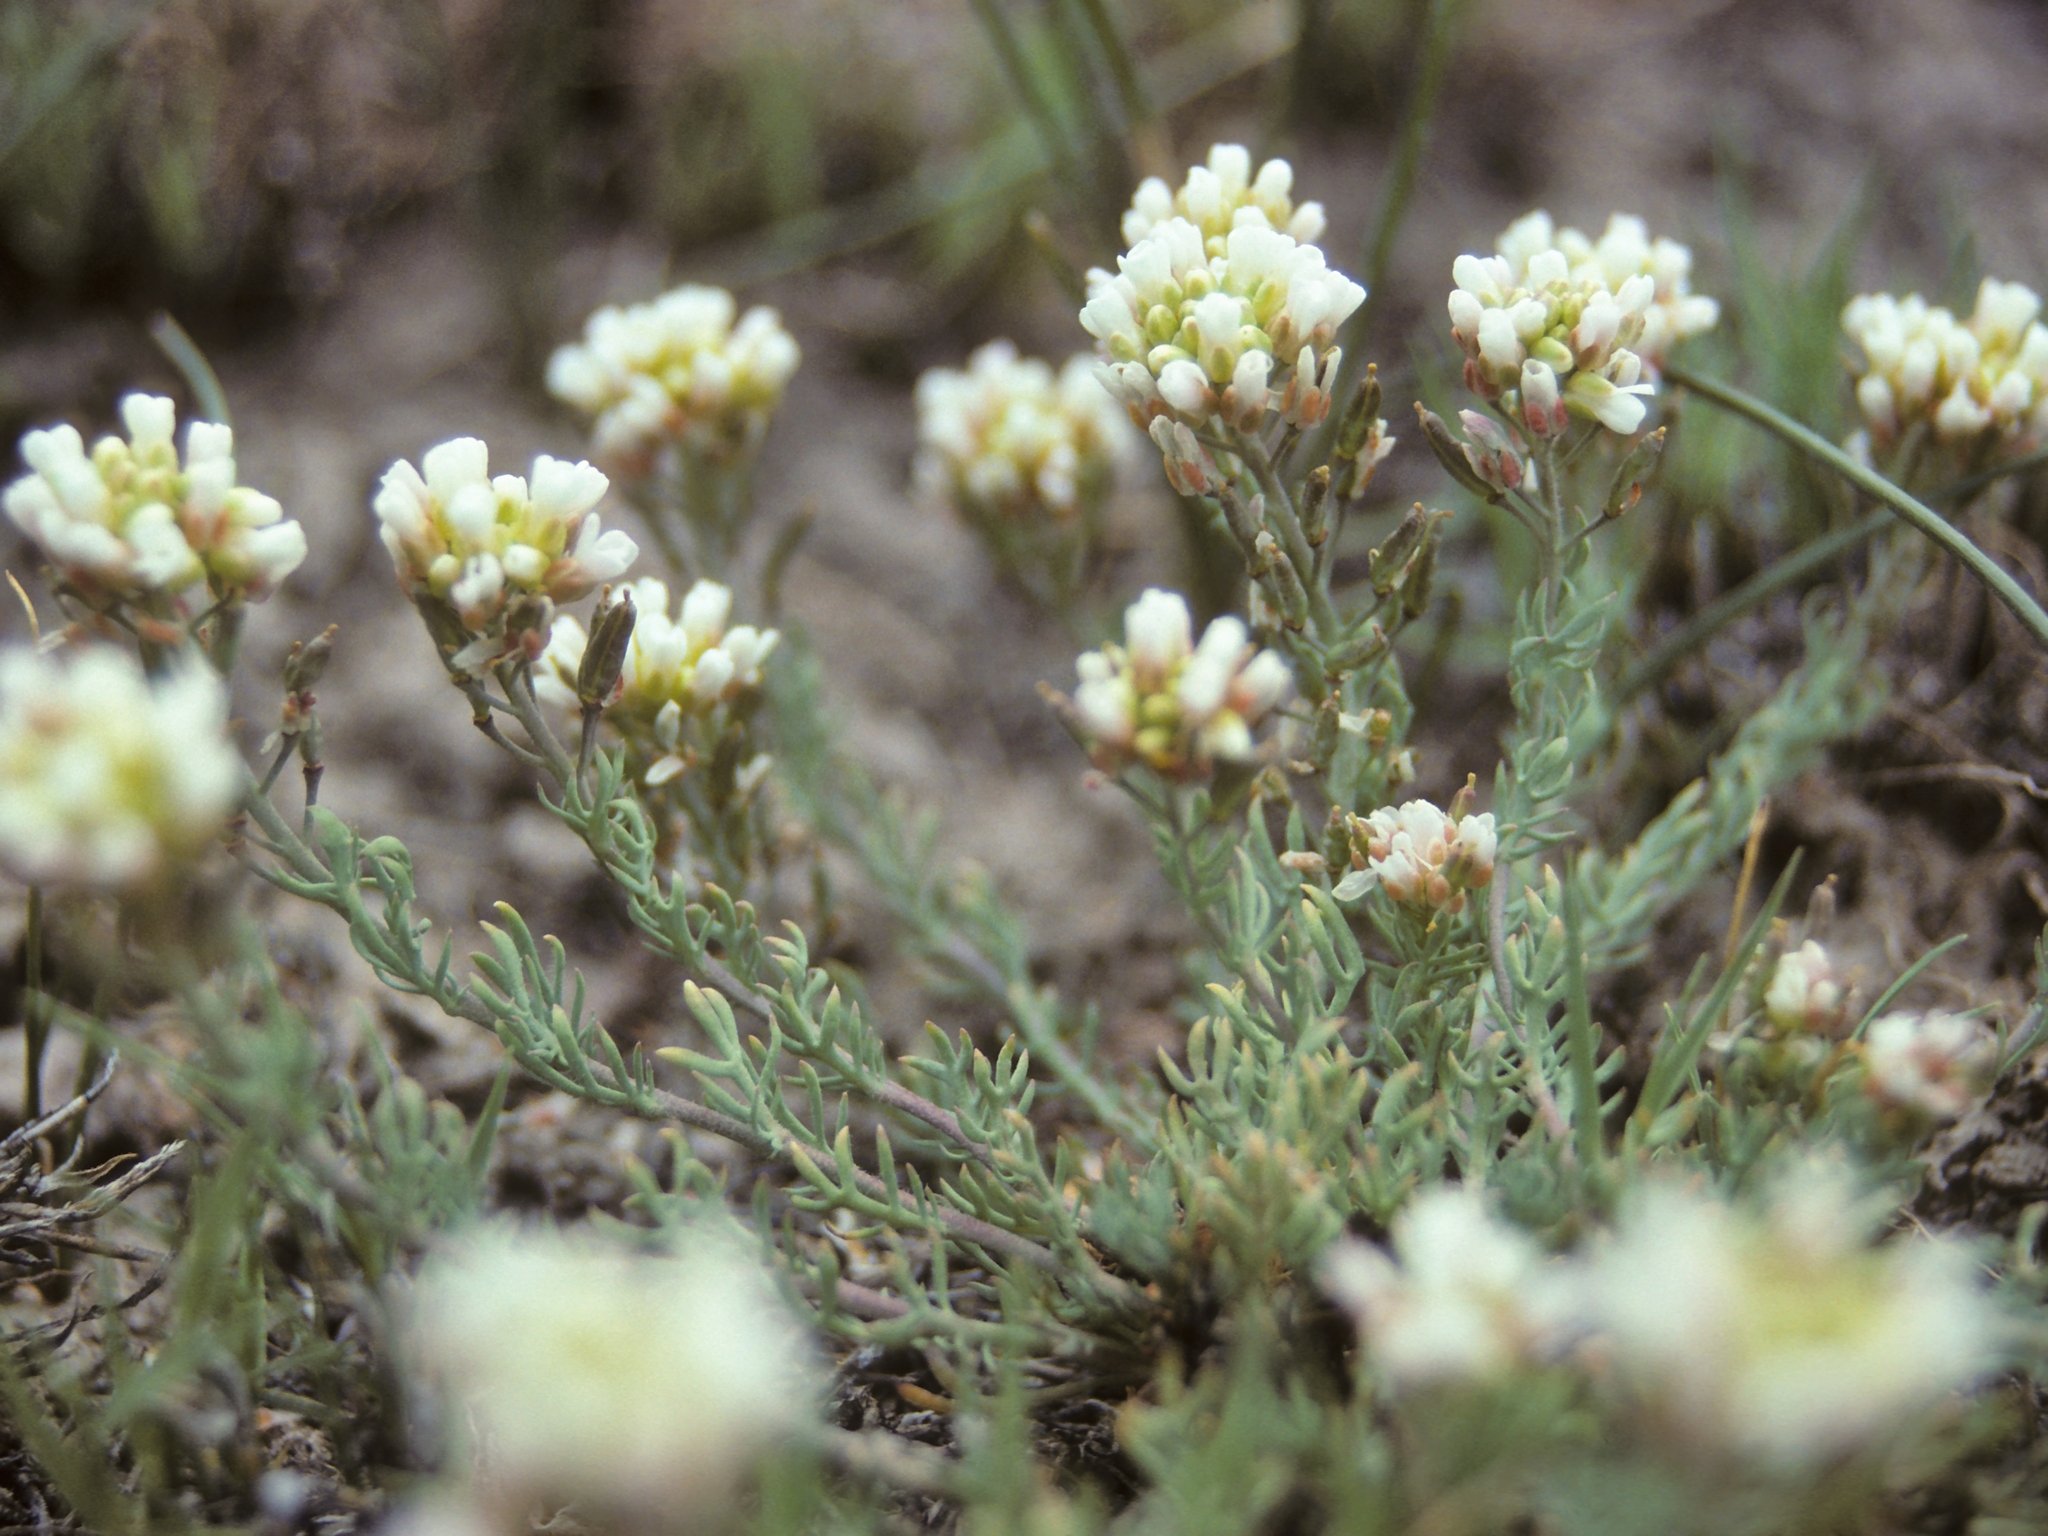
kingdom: Plantae
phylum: Tracheophyta
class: Magnoliopsida
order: Brassicales
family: Brassicaceae
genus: Polyctenium
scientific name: Polyctenium fremontii
